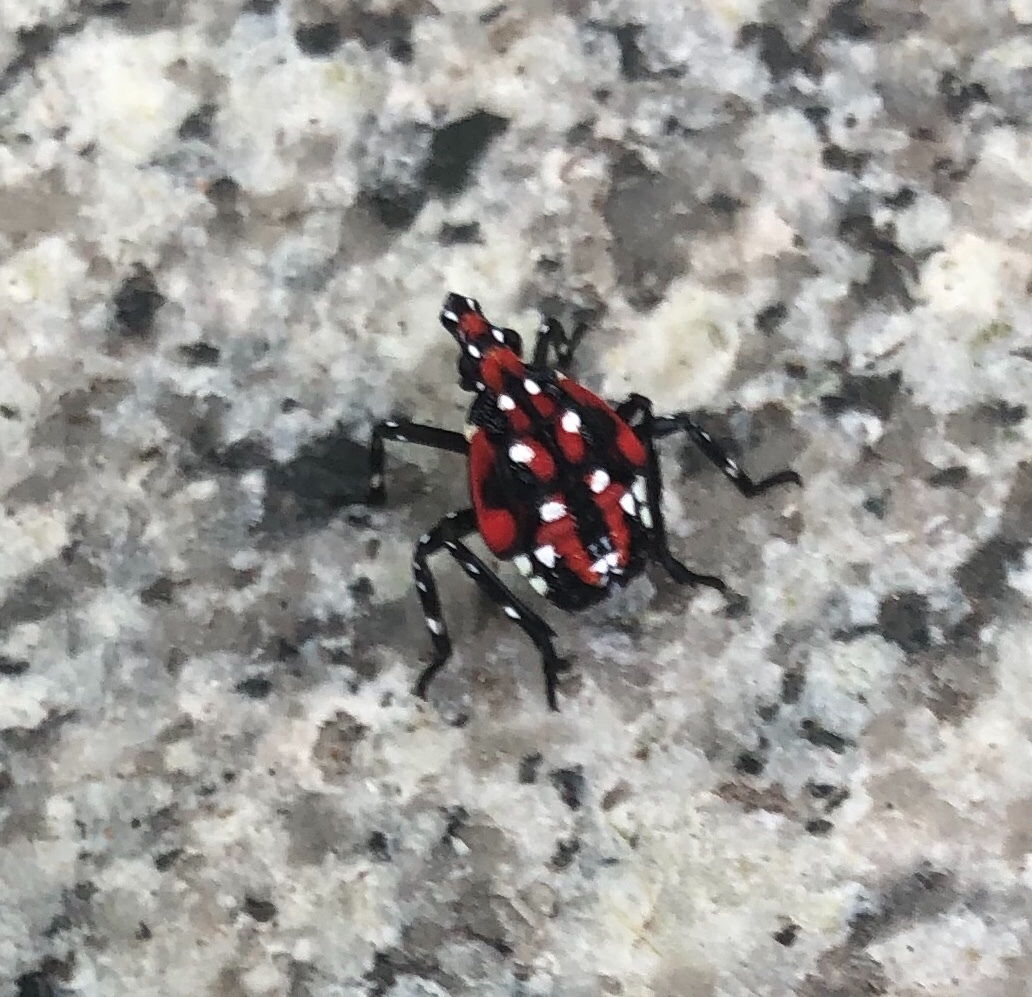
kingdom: Animalia
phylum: Arthropoda
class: Insecta
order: Hemiptera
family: Fulgoridae
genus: Lycorma
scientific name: Lycorma delicatula
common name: Spotted lanternfly
